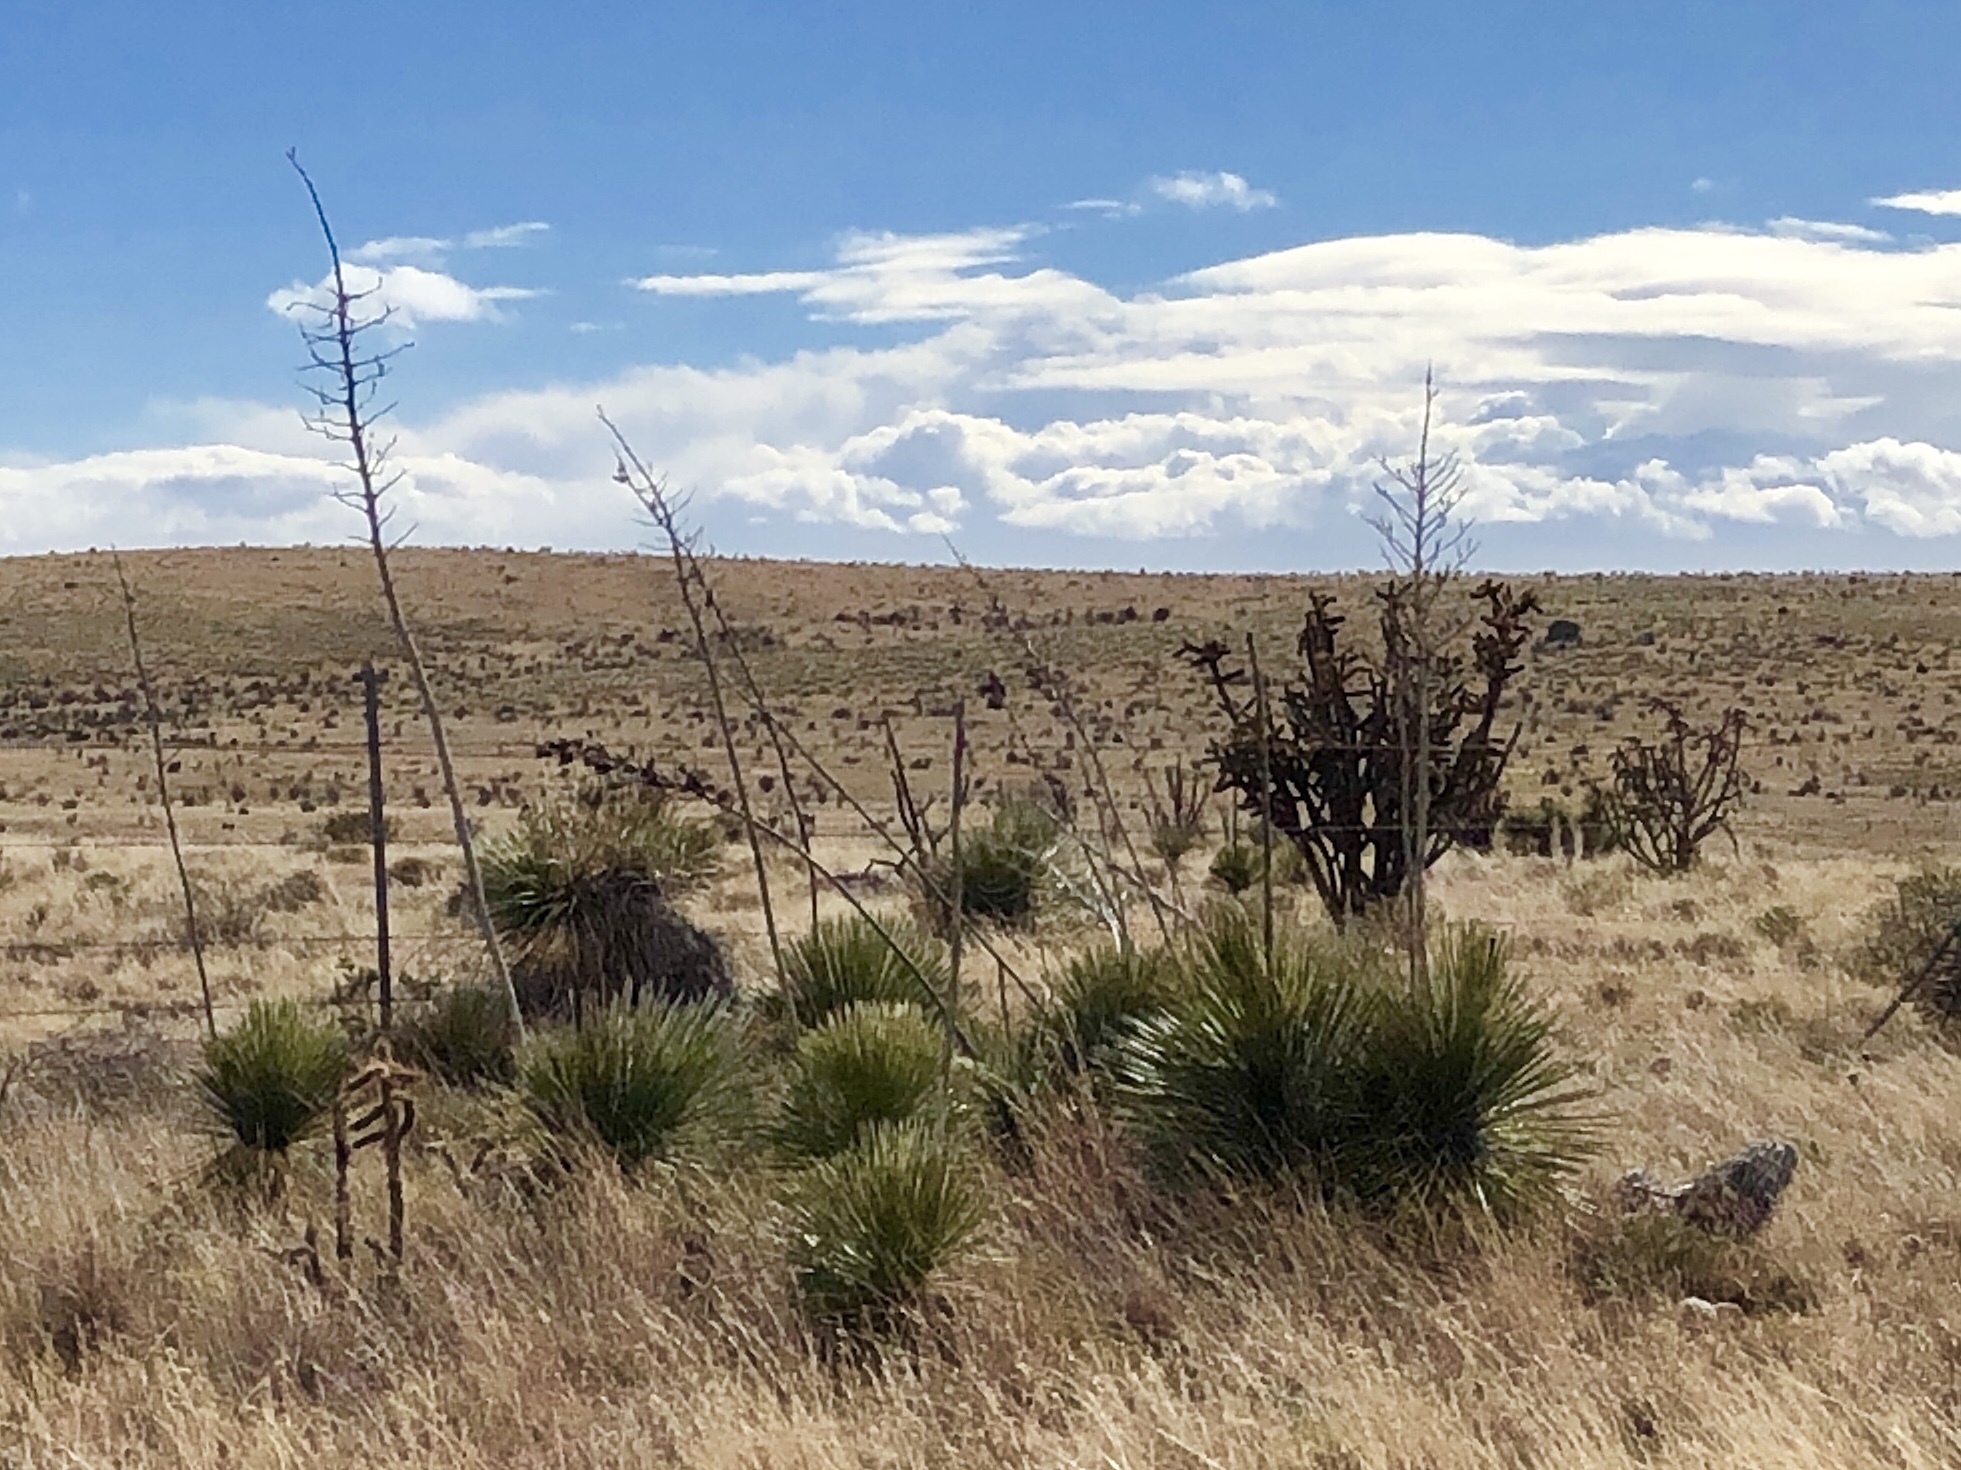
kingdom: Plantae
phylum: Tracheophyta
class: Liliopsida
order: Asparagales
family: Asparagaceae
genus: Yucca
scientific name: Yucca elata
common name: Palmella
